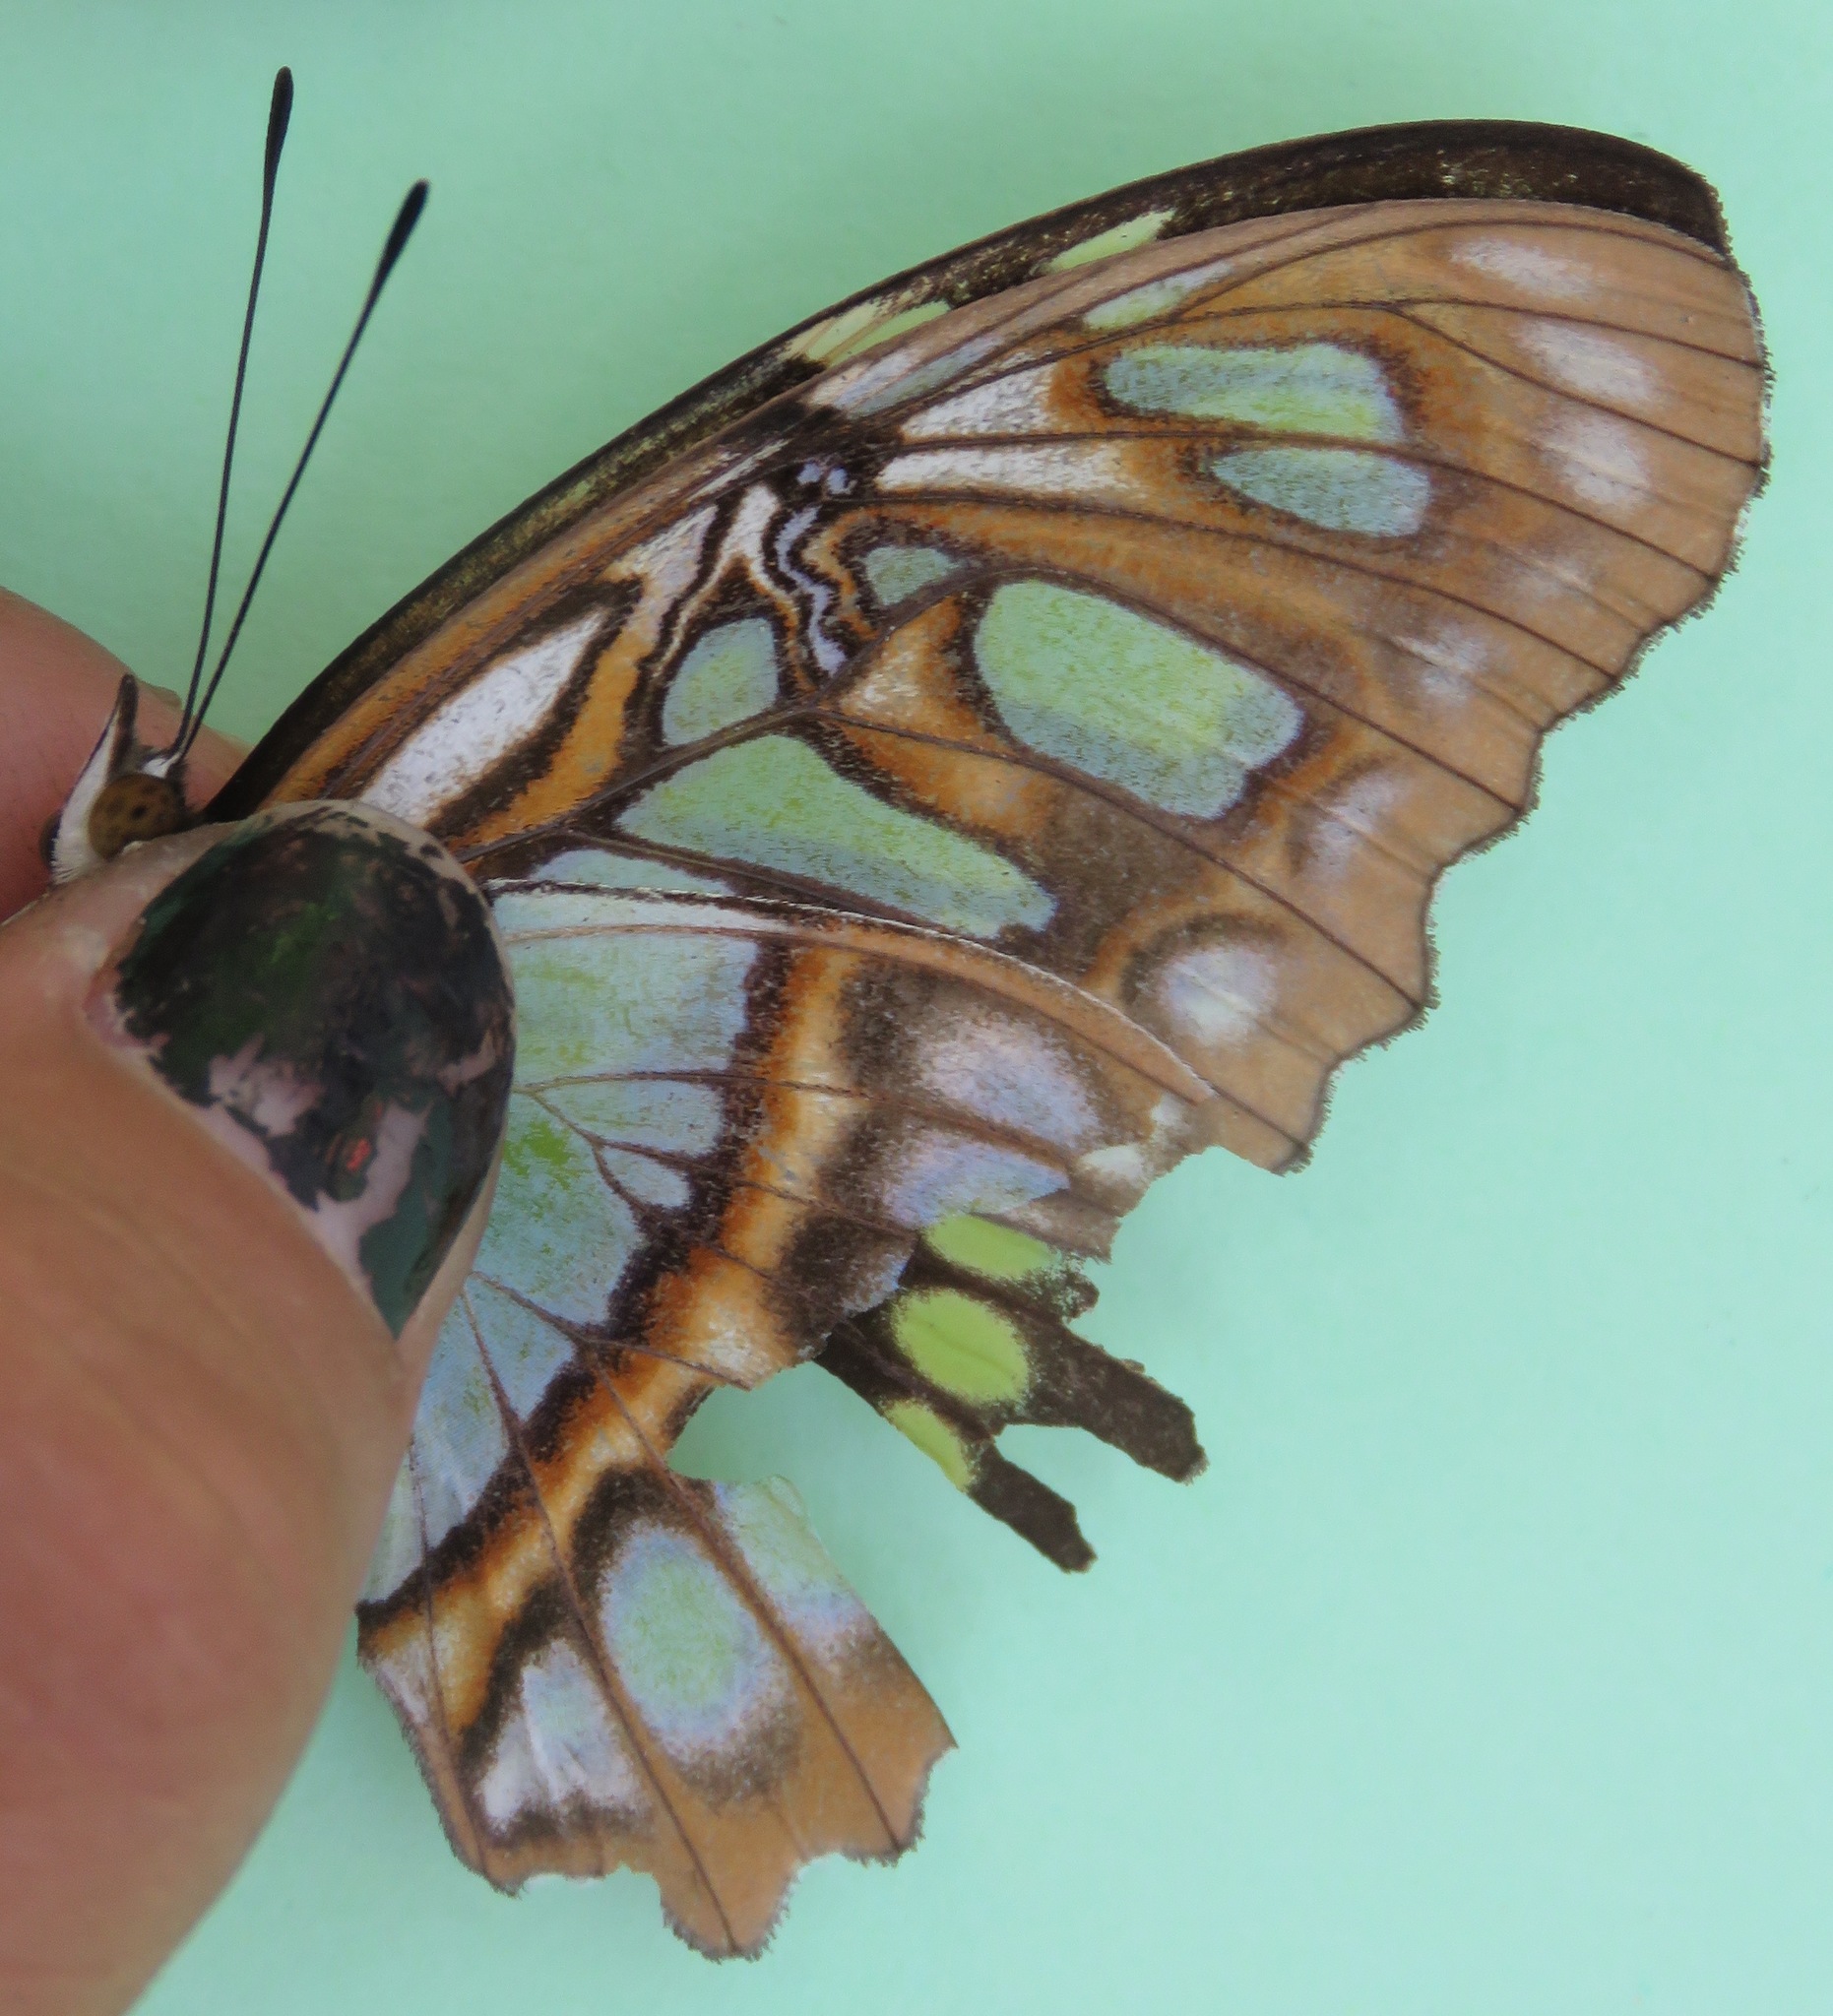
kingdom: Animalia
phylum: Arthropoda
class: Insecta
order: Lepidoptera
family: Nymphalidae
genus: Siproeta
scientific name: Siproeta stelenes
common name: Malachite
